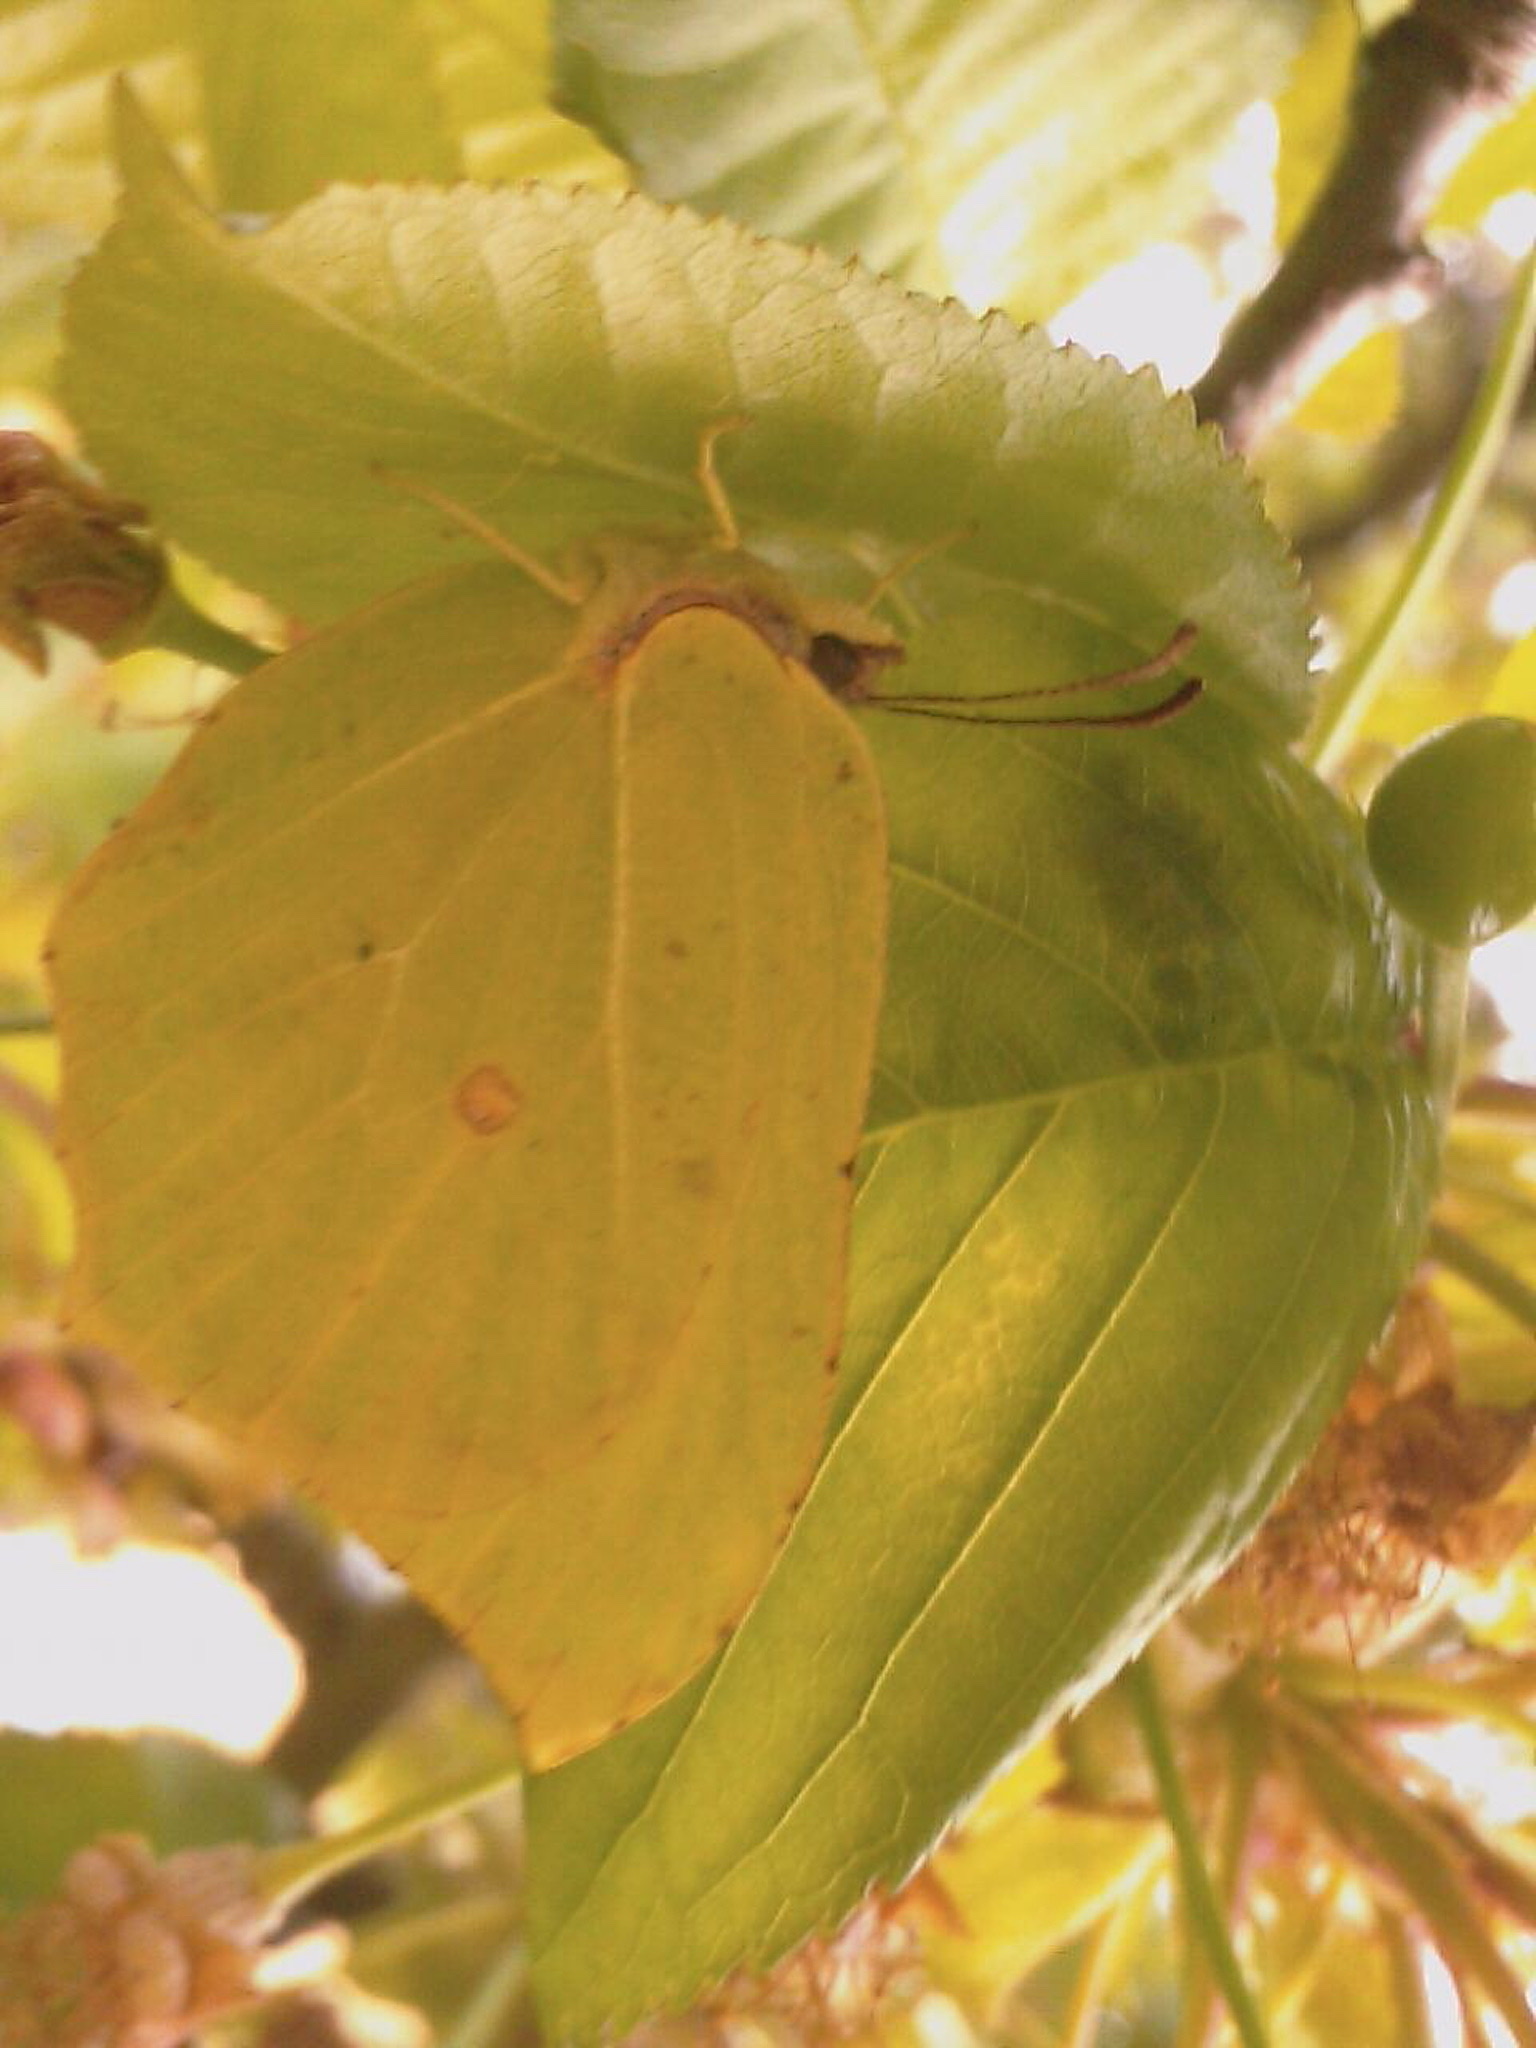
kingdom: Animalia
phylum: Arthropoda
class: Insecta
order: Lepidoptera
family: Pieridae
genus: Gonepteryx
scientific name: Gonepteryx rhamni
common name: Brimstone
